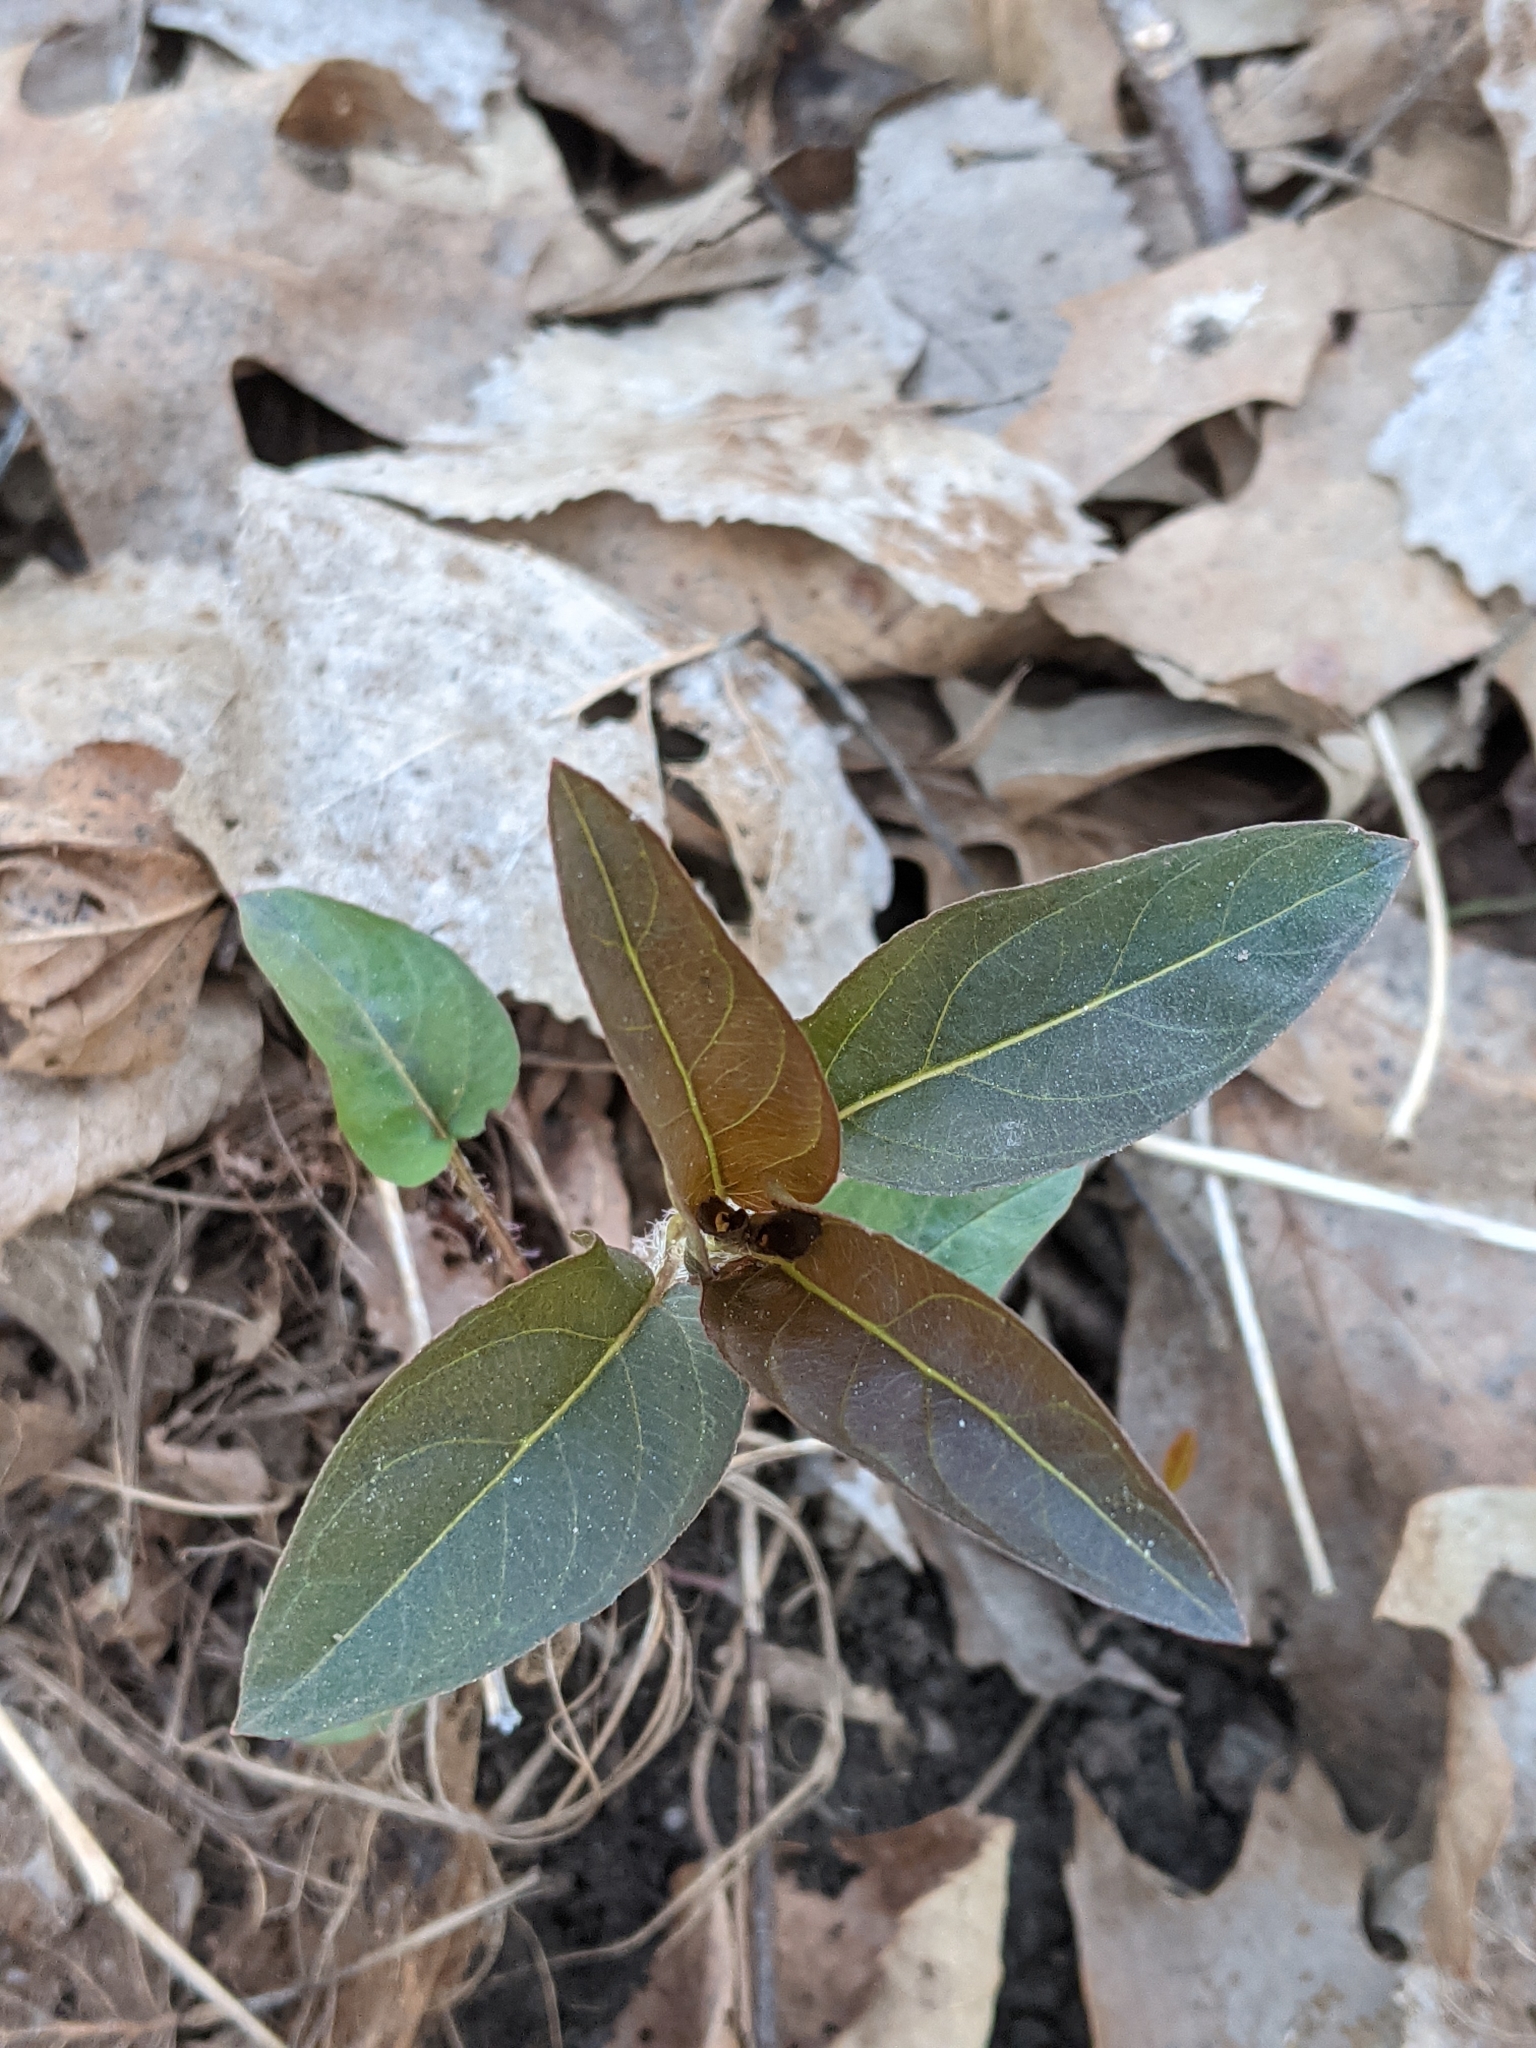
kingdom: Plantae
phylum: Tracheophyta
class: Magnoliopsida
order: Ericales
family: Primulaceae
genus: Lysimachia
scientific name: Lysimachia ciliata
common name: Fringed loosestrife
